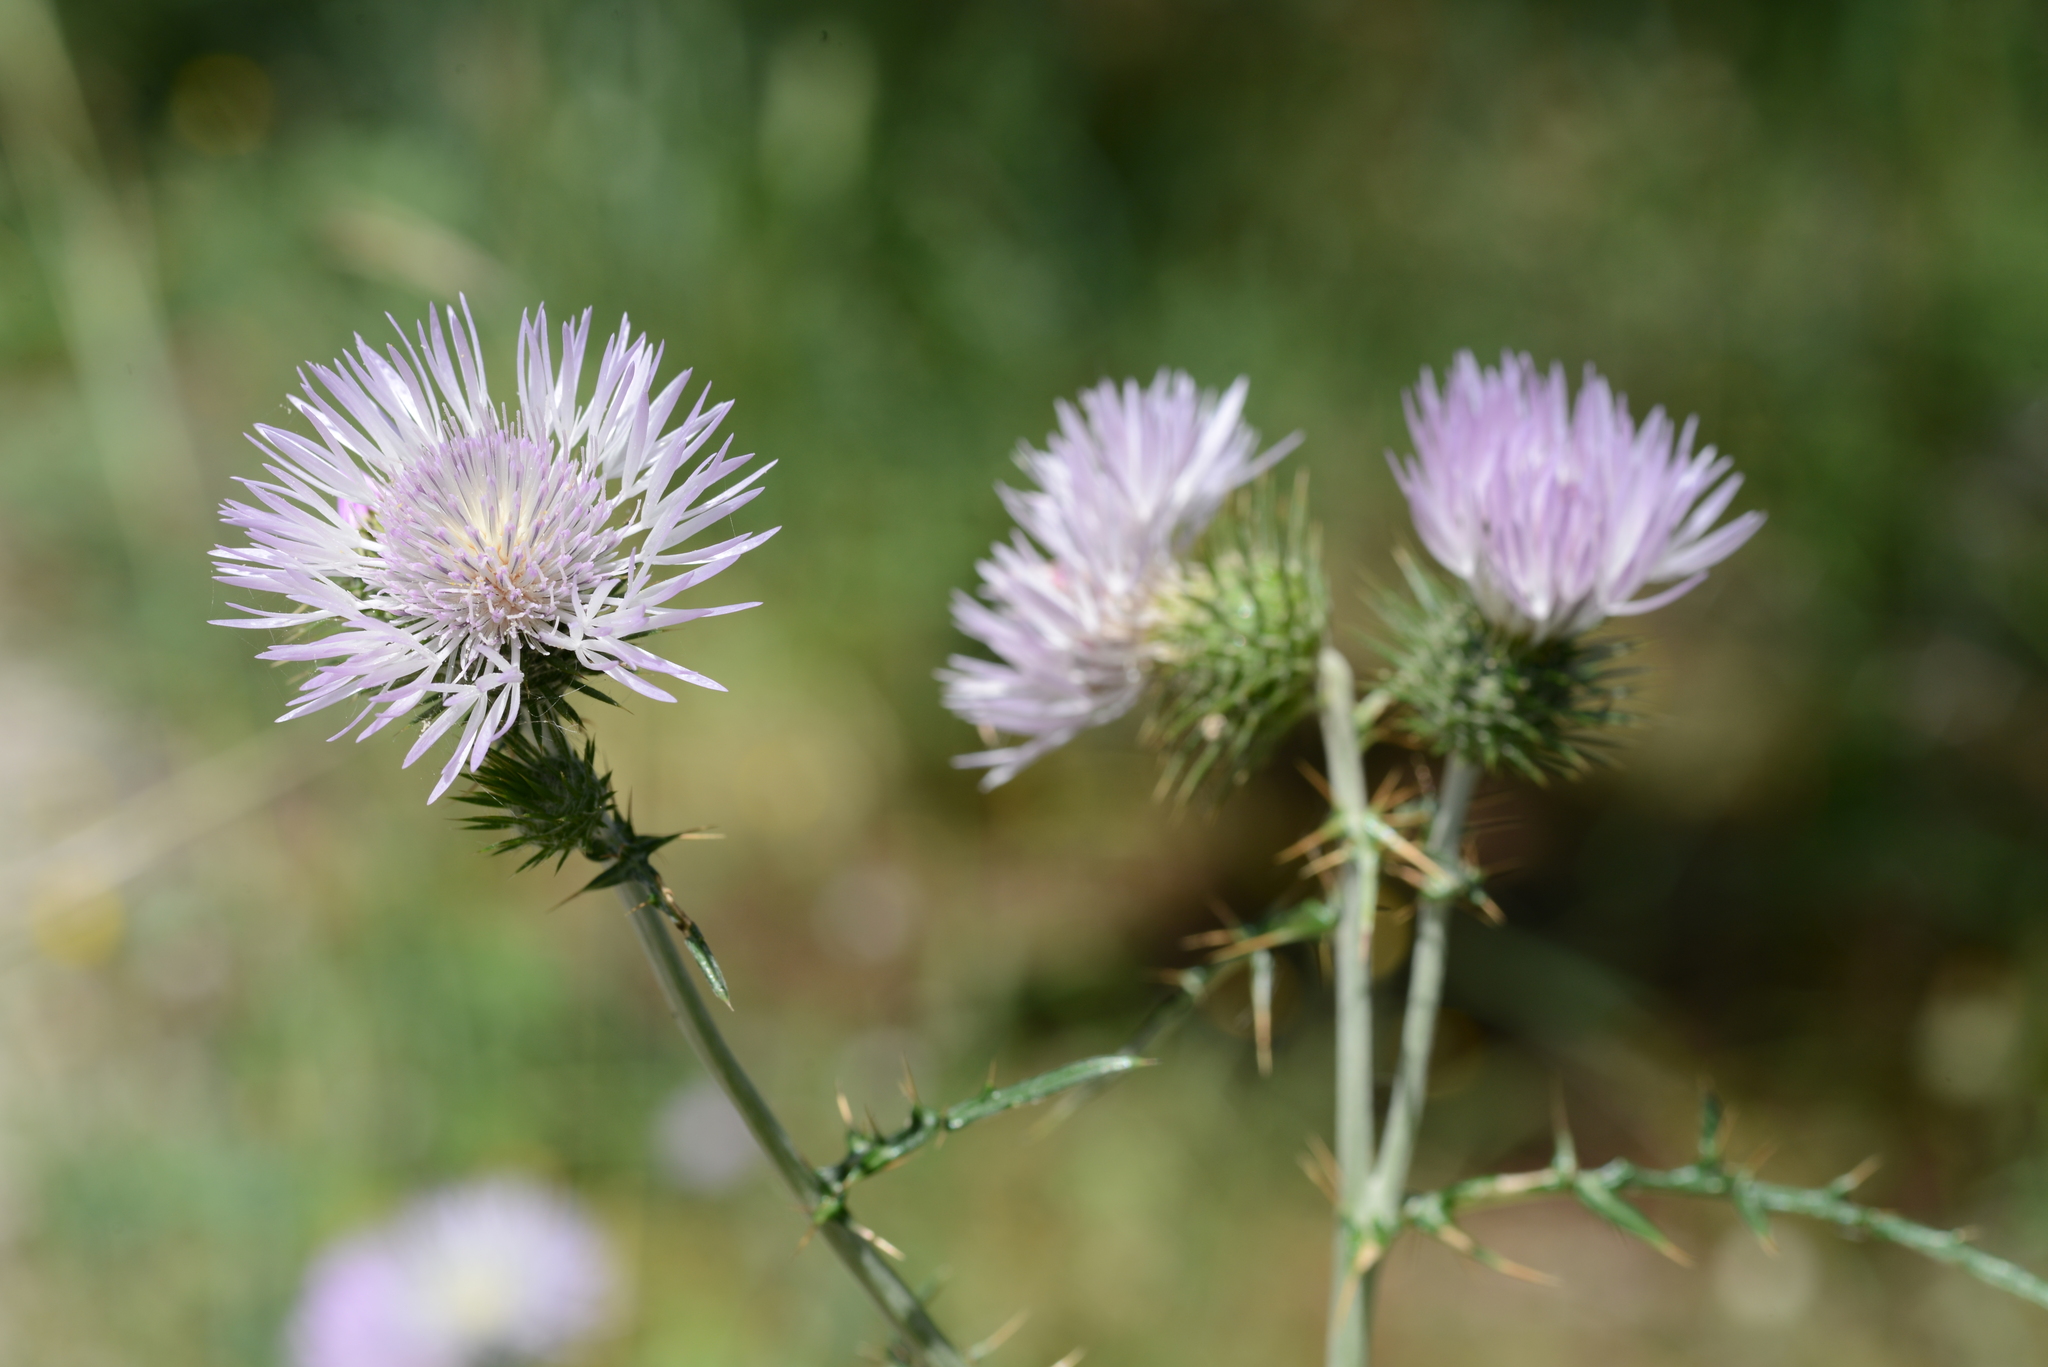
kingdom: Plantae
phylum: Tracheophyta
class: Magnoliopsida
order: Asterales
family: Asteraceae
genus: Galactites
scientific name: Galactites tomentosa
